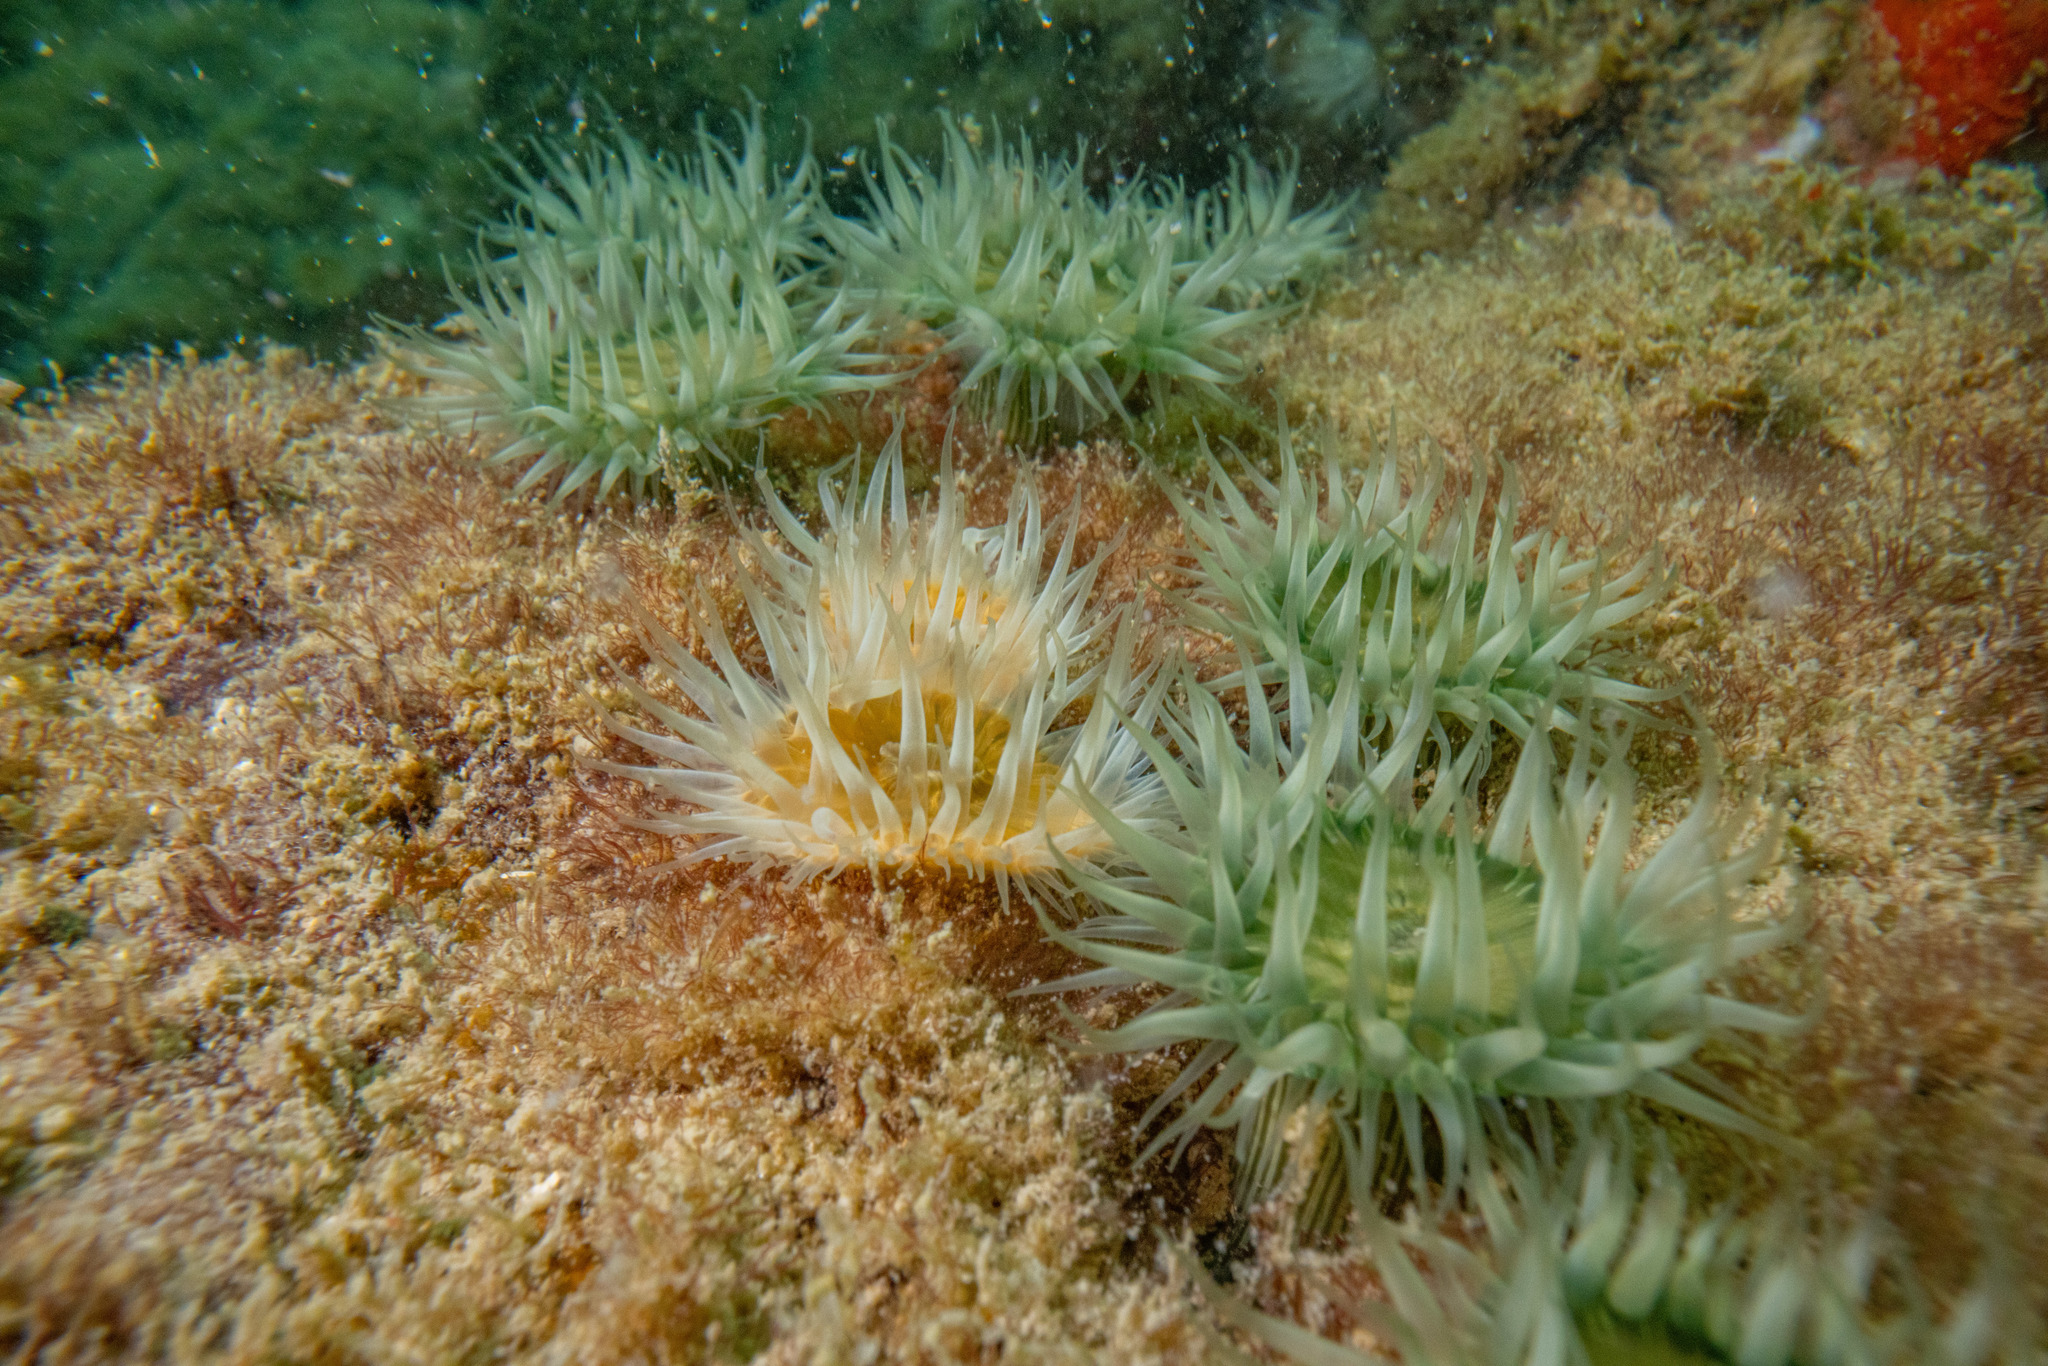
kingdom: Animalia
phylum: Cnidaria
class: Anthozoa
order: Actiniaria
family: Sagartiidae
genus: Anthothoe
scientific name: Anthothoe albocincta
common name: Orange striped anemone
